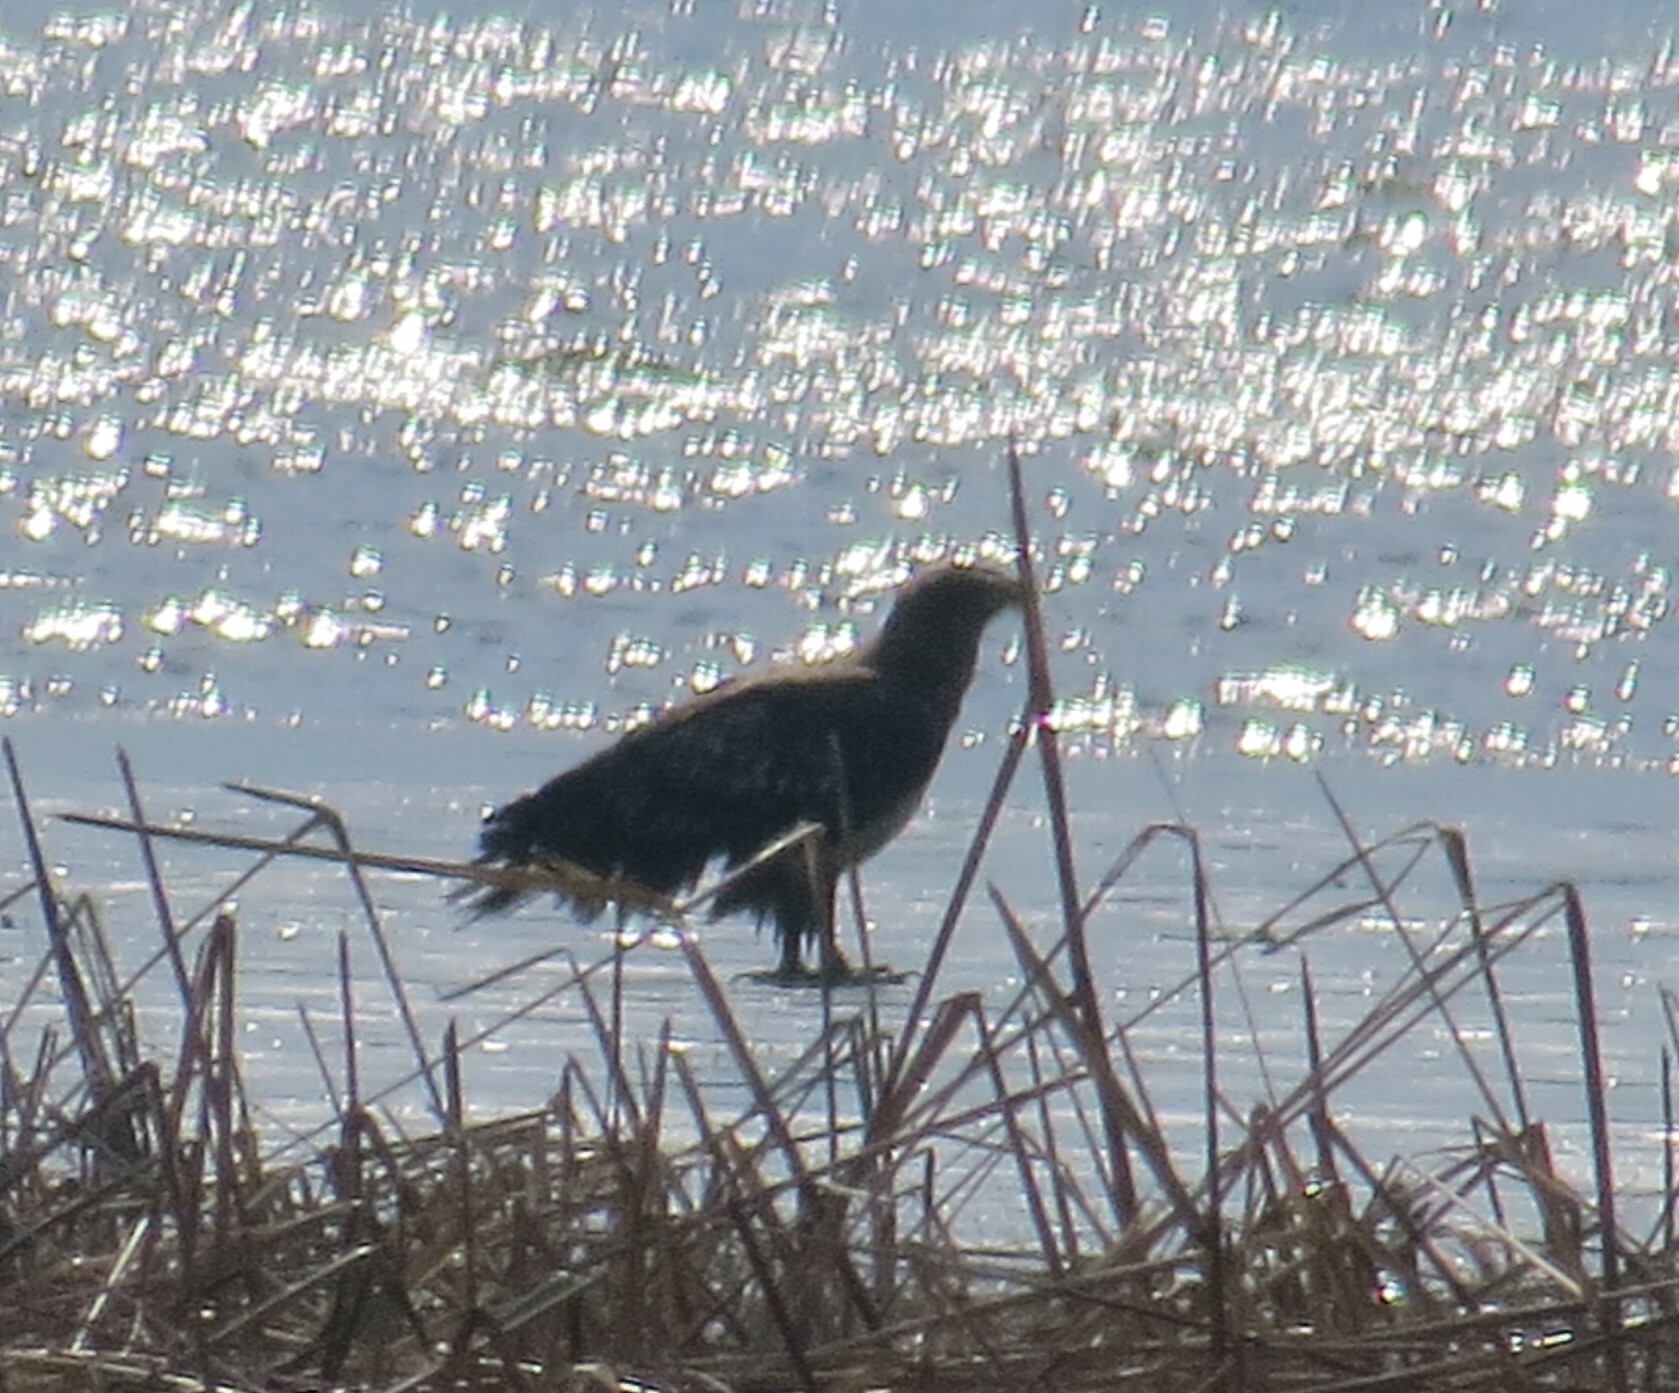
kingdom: Animalia
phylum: Chordata
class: Aves
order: Accipitriformes
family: Accipitridae
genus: Haliaeetus
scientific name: Haliaeetus leucocephalus
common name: Bald eagle
